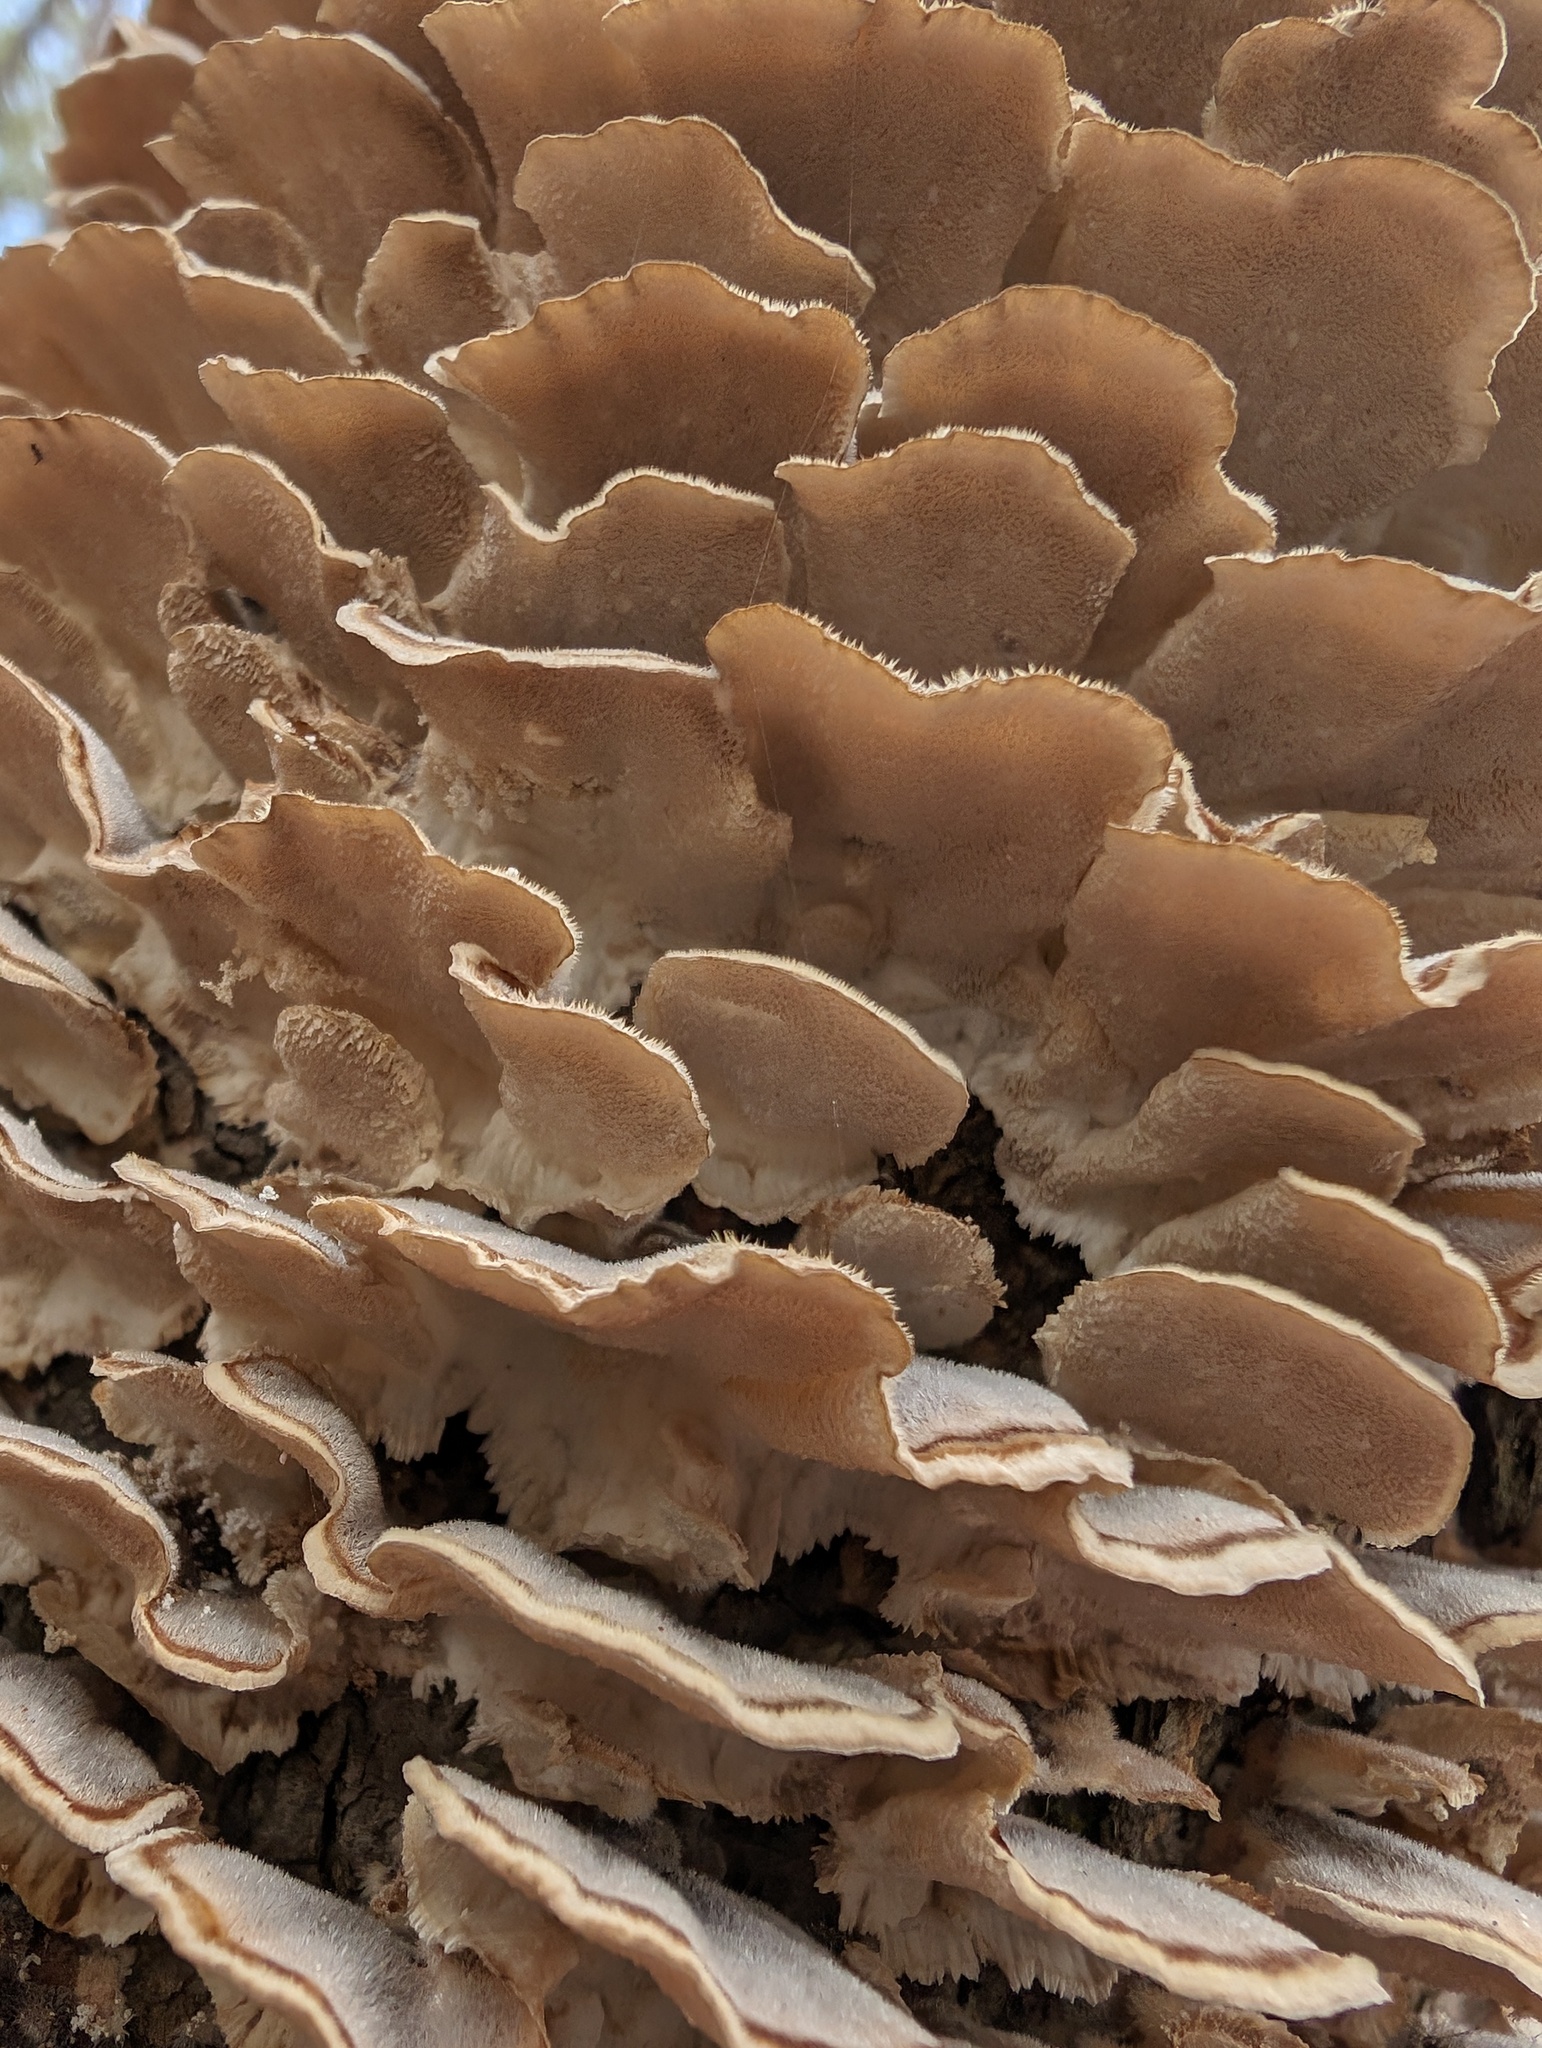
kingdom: Fungi
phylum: Basidiomycota
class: Agaricomycetes
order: Polyporales
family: Polyporaceae
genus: Trametes
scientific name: Trametes versicolor
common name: Turkeytail
